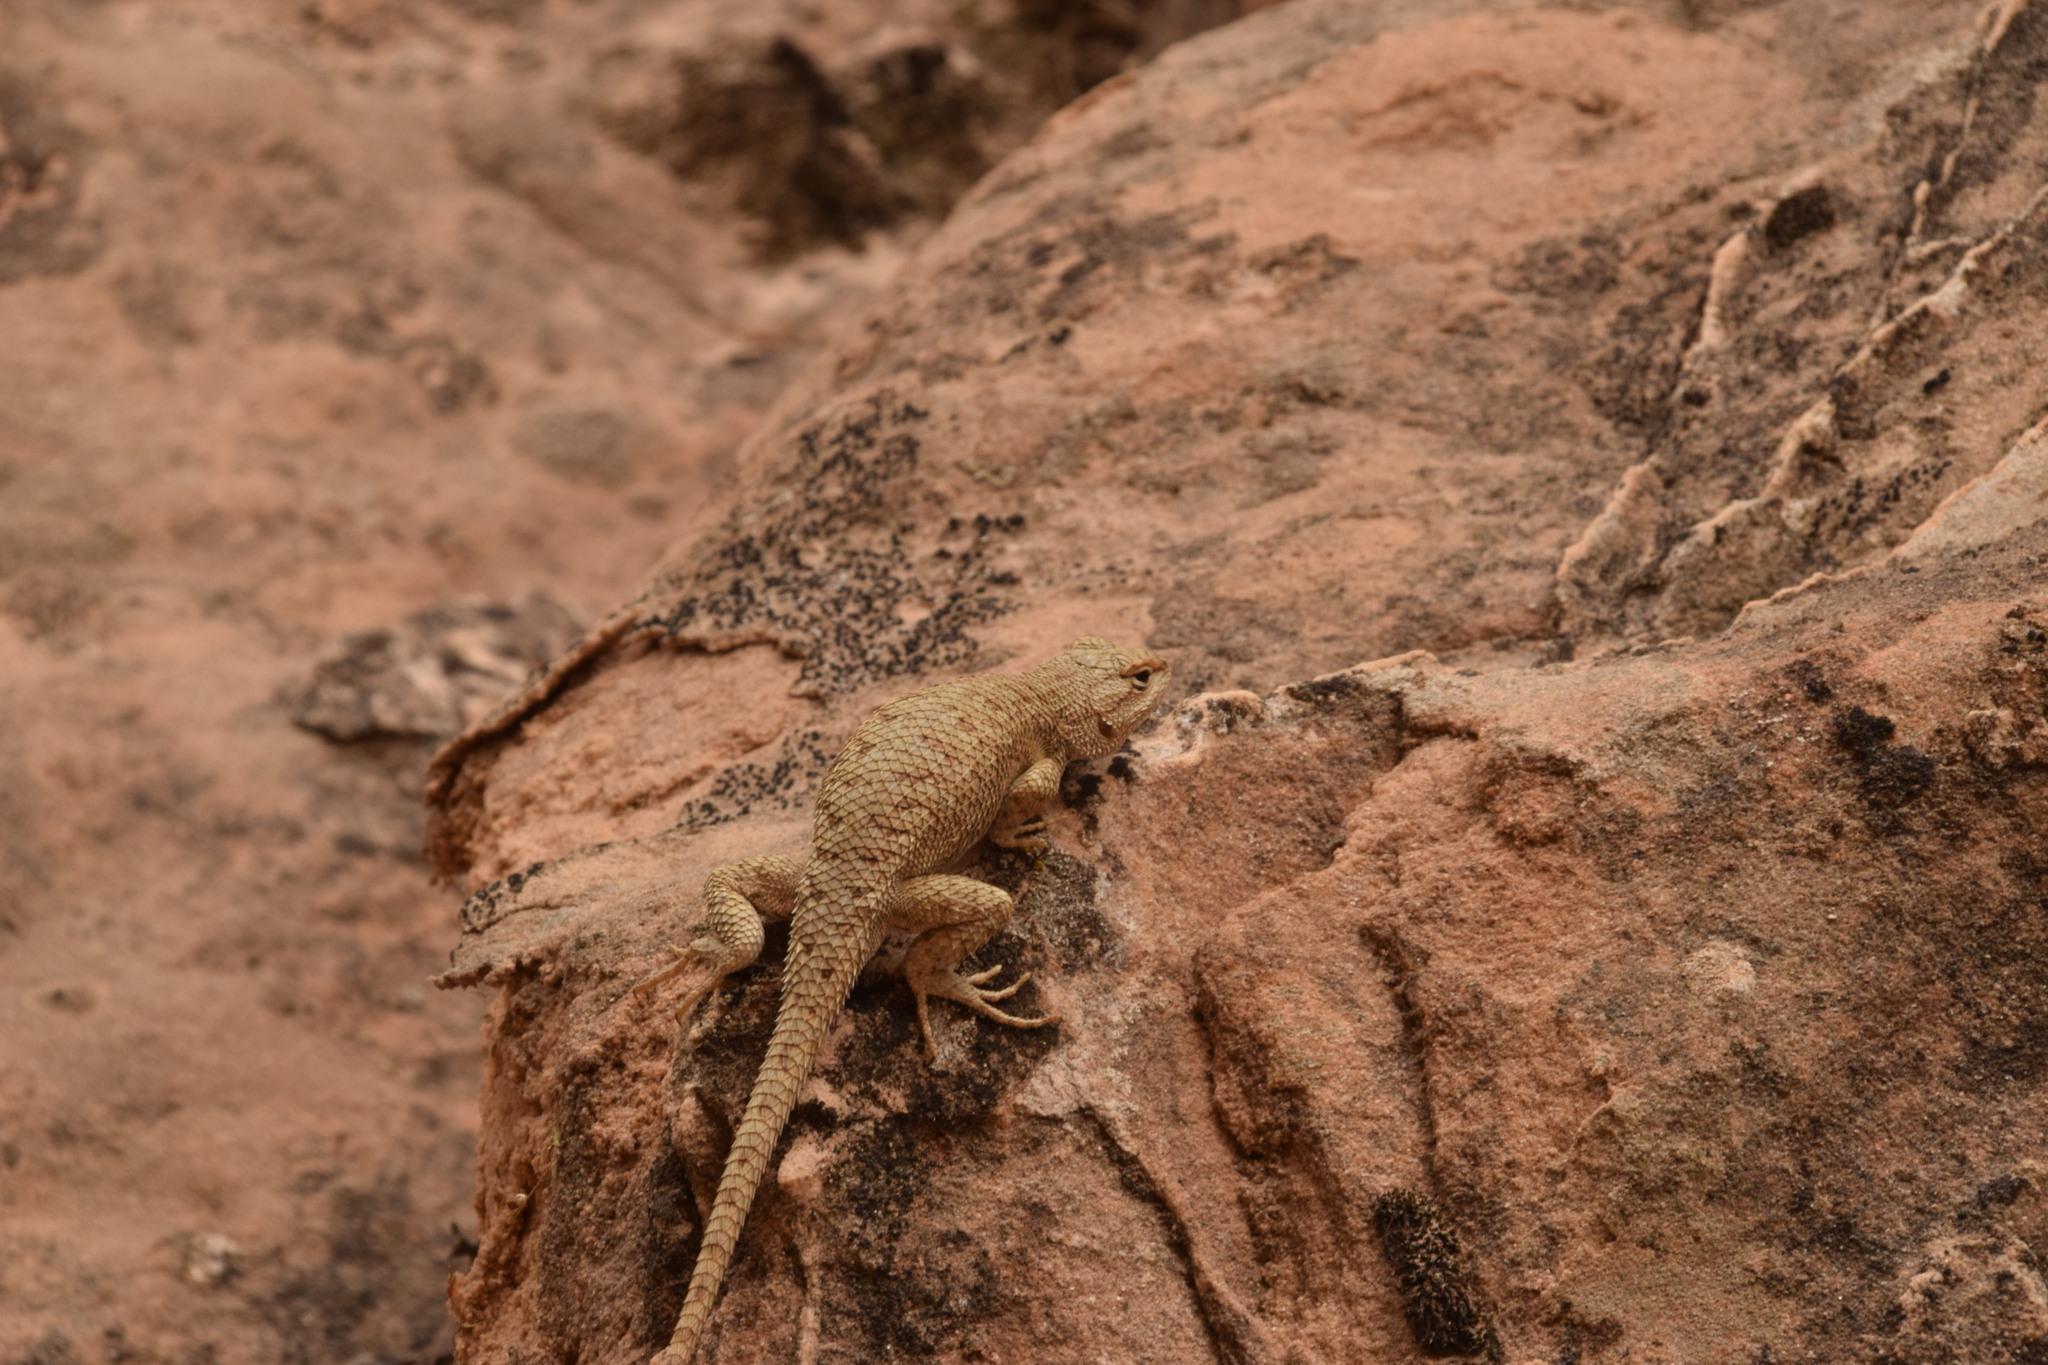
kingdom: Animalia
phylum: Chordata
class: Squamata
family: Phrynosomatidae
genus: Sceloporus
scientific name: Sceloporus tristichus
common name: Plateau fence lizard
